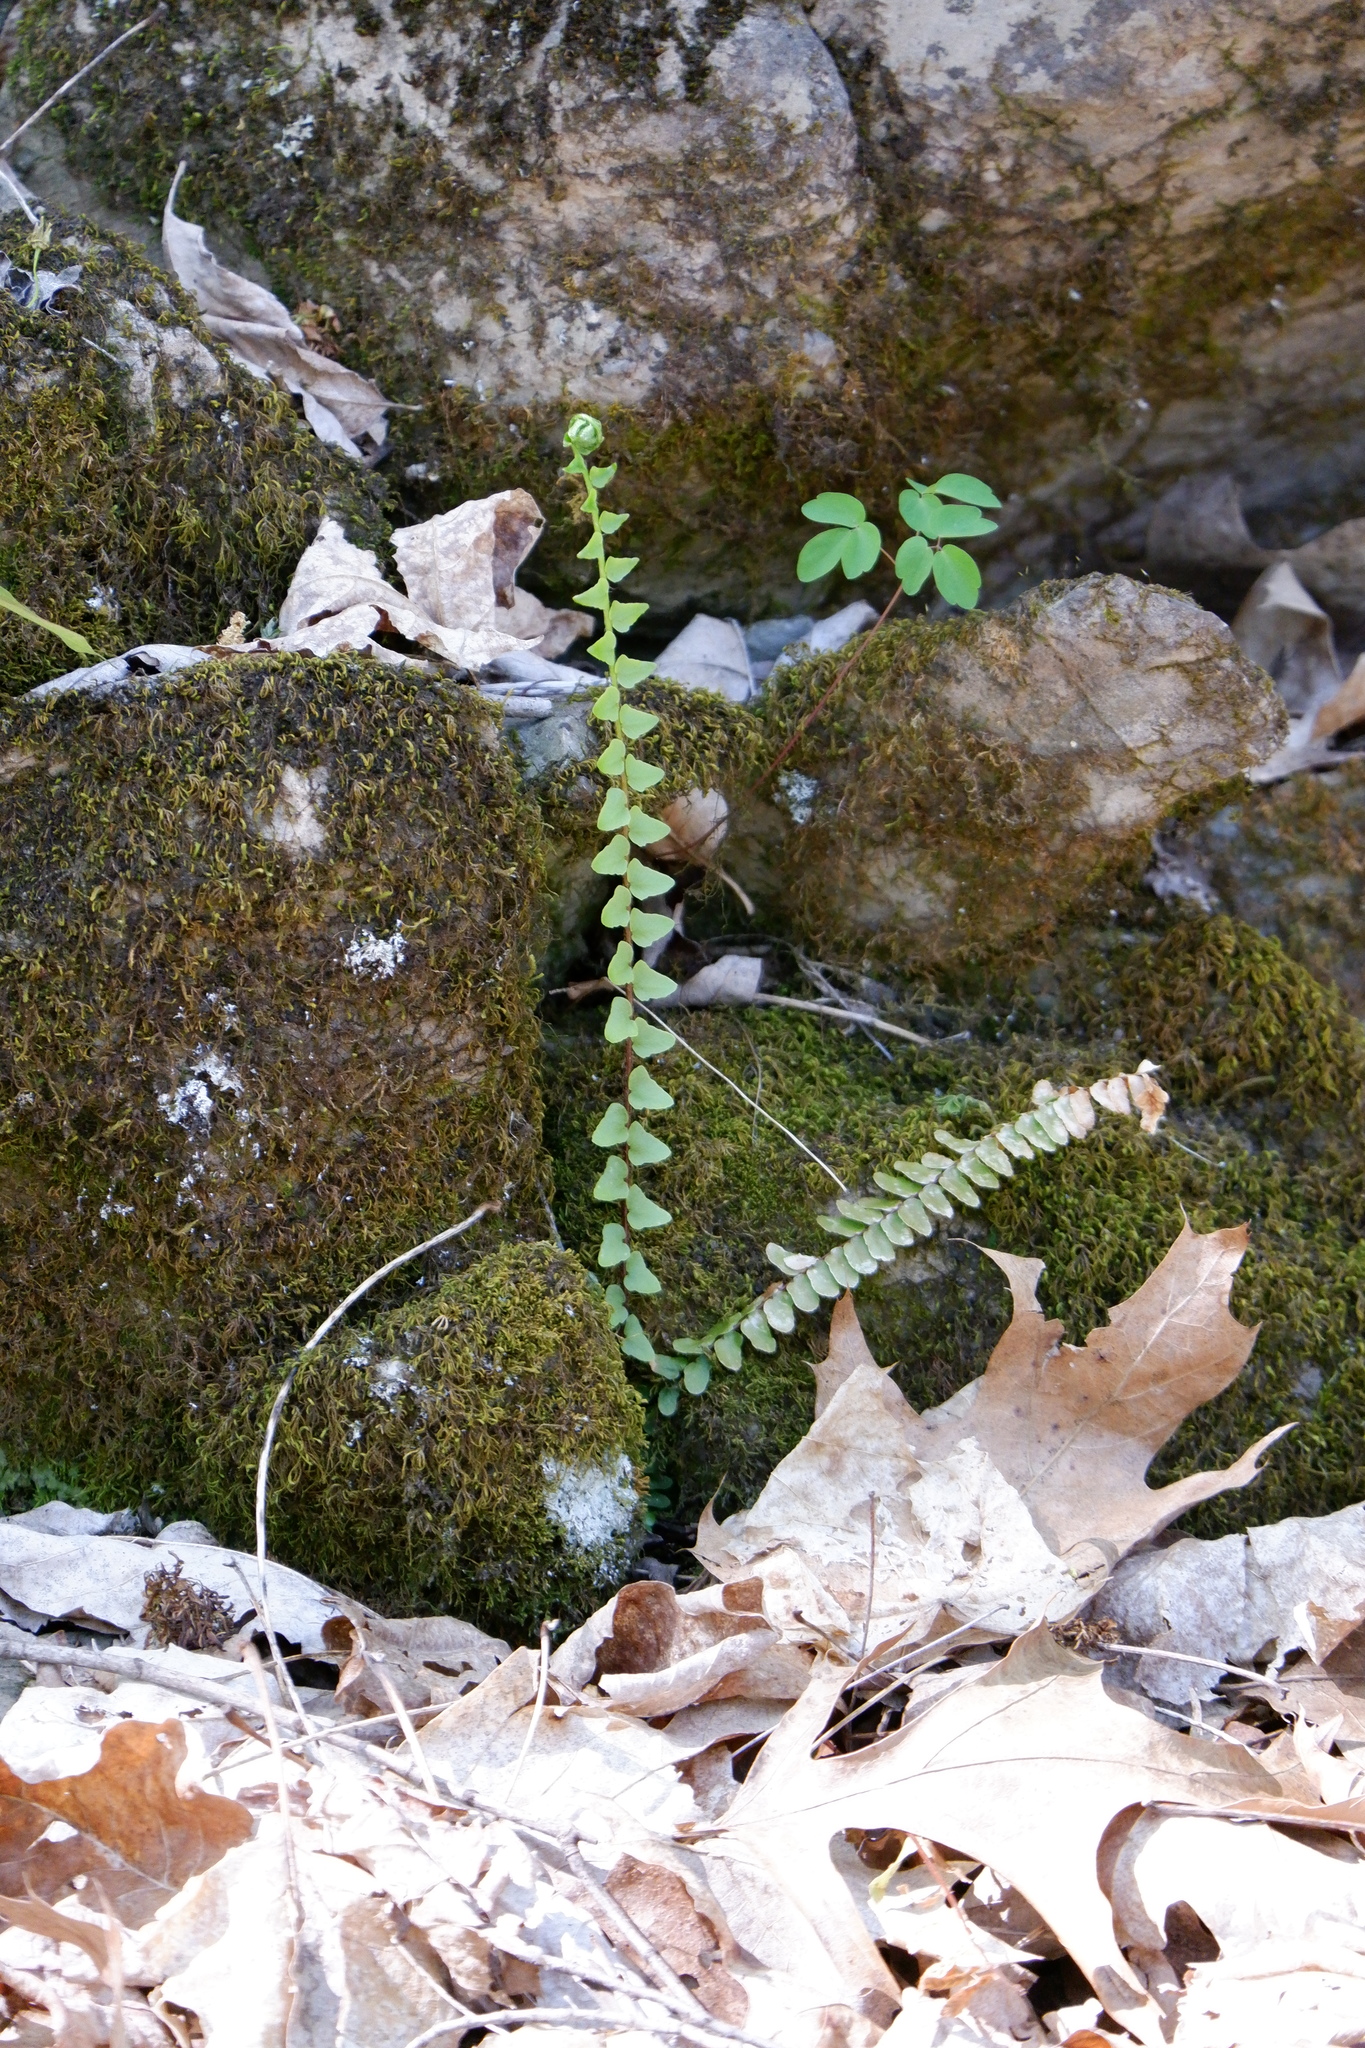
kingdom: Plantae
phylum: Tracheophyta
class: Polypodiopsida
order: Polypodiales
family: Aspleniaceae
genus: Asplenium
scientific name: Asplenium platyneuron
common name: Ebony spleenwort
